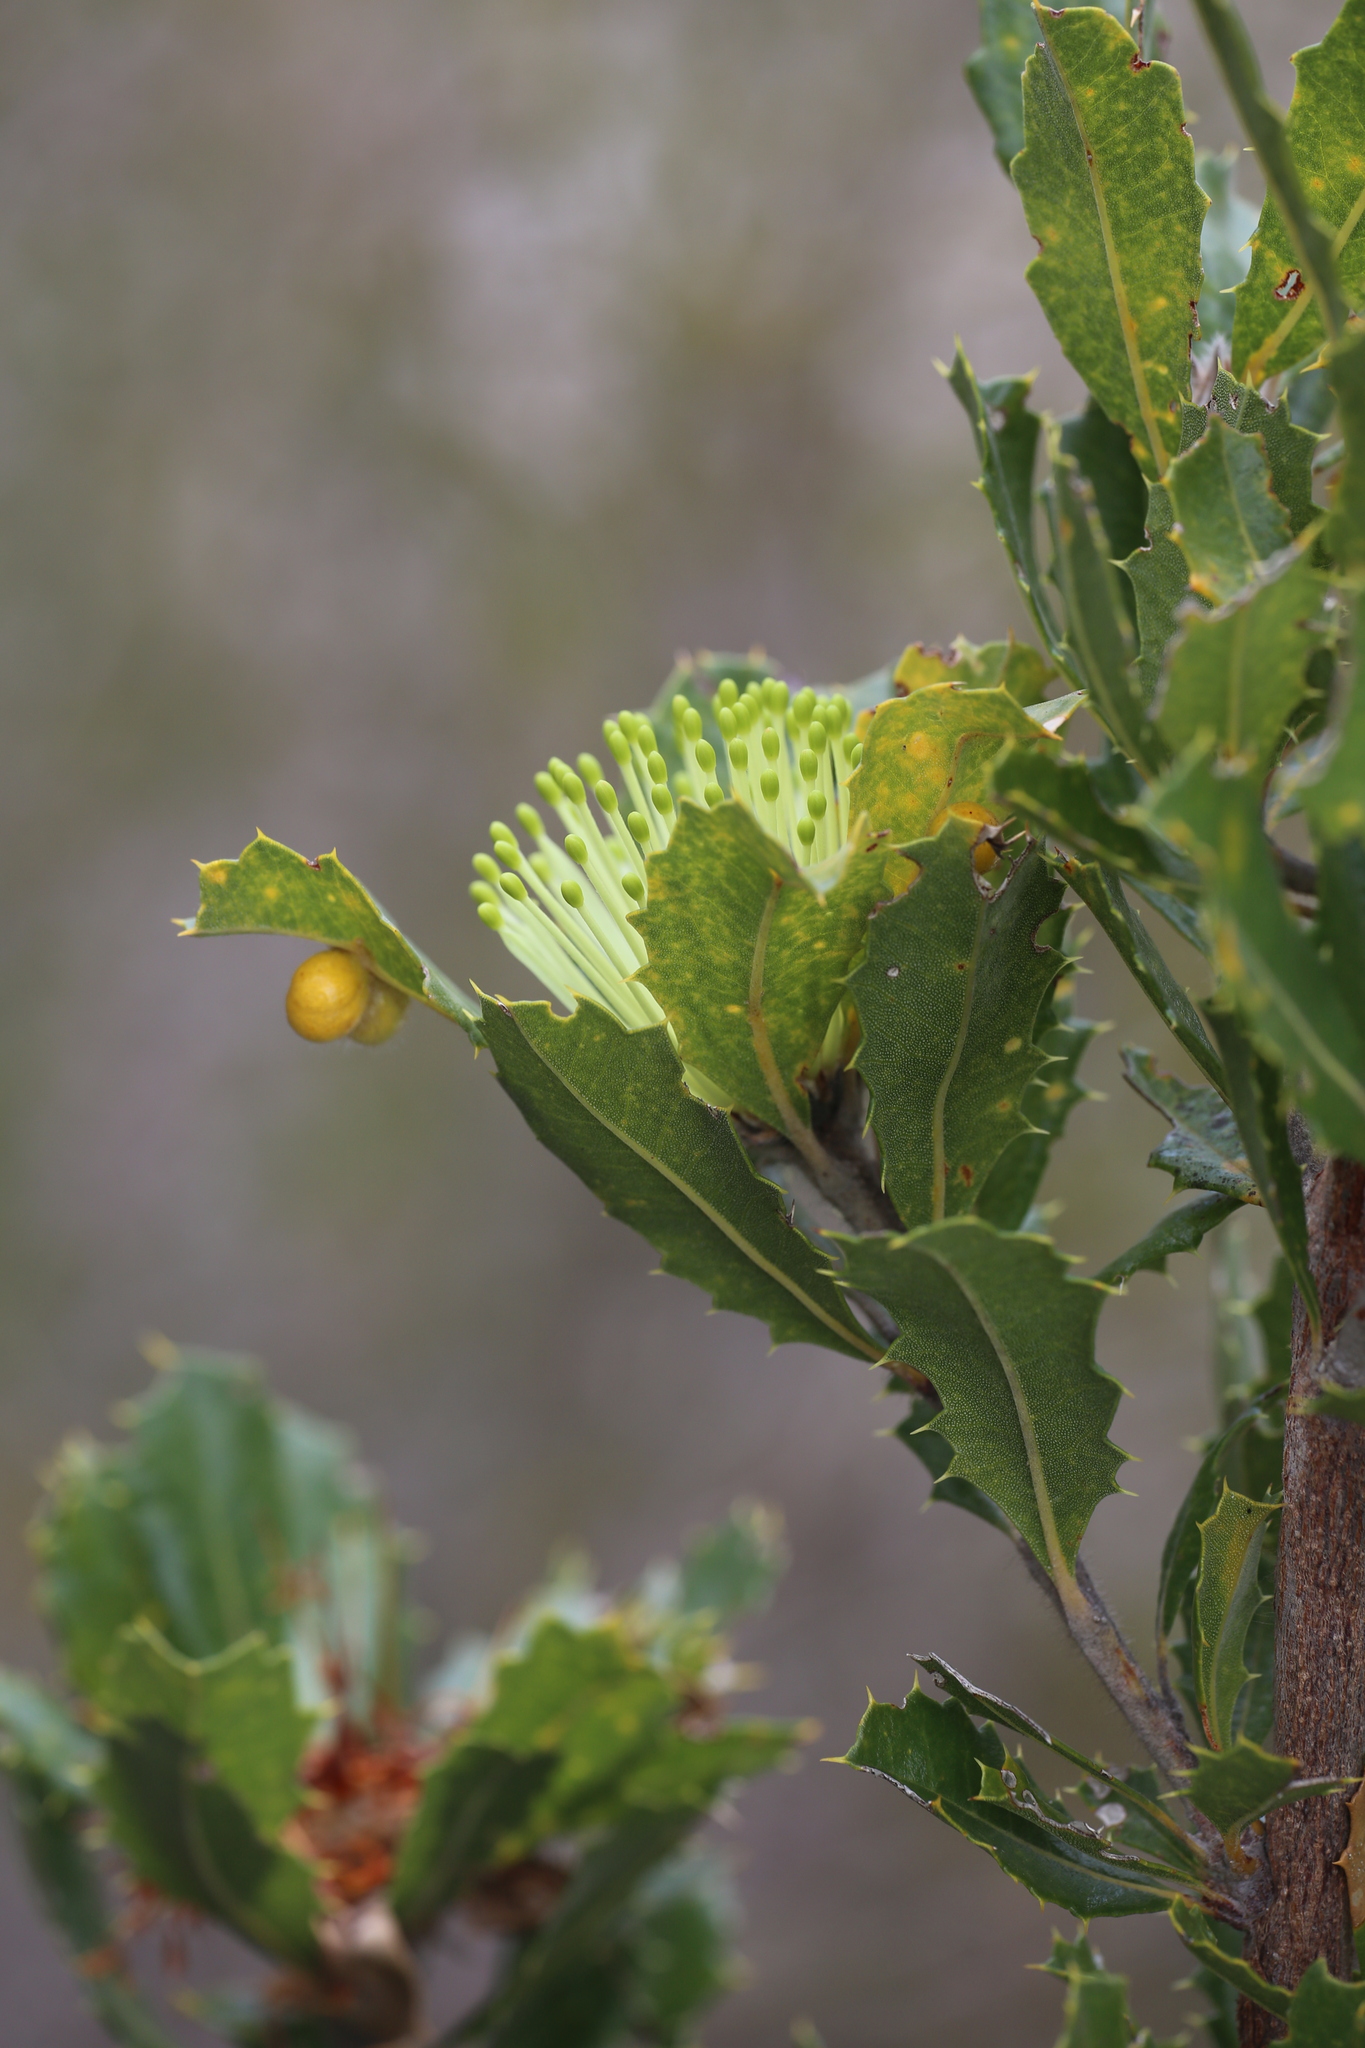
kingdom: Plantae
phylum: Tracheophyta
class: Magnoliopsida
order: Proteales
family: Proteaceae
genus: Banksia
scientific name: Banksia ilicifolia
